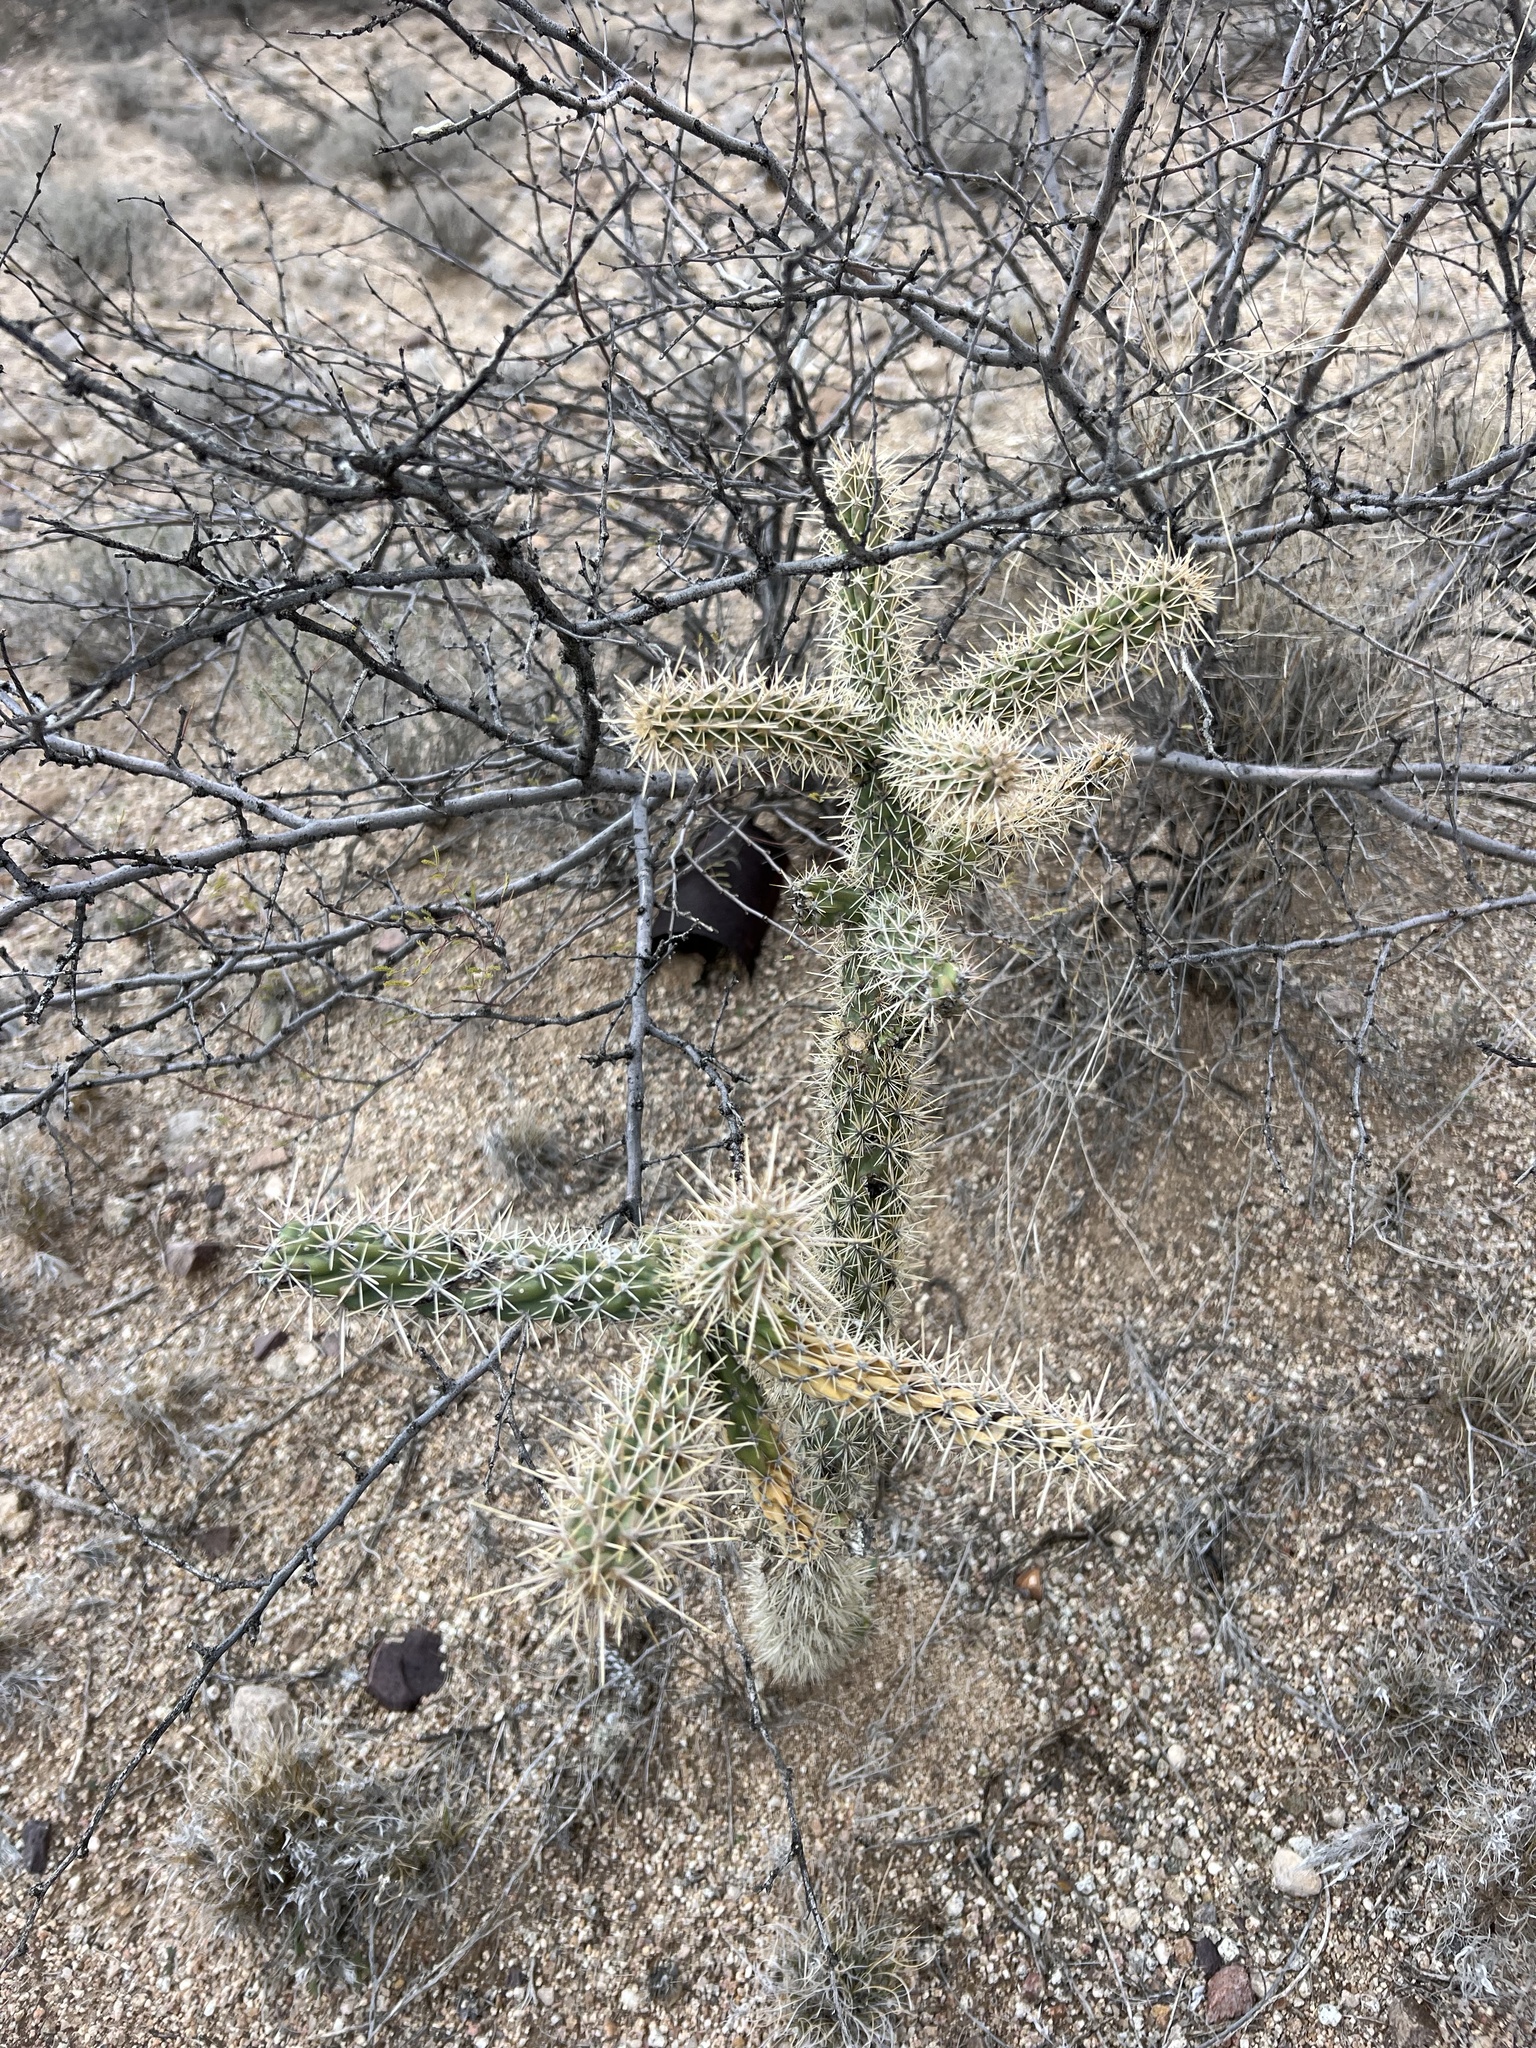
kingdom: Plantae
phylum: Tracheophyta
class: Magnoliopsida
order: Caryophyllales
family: Cactaceae
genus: Cylindropuntia
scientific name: Cylindropuntia imbricata
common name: Candelabrum cactus
